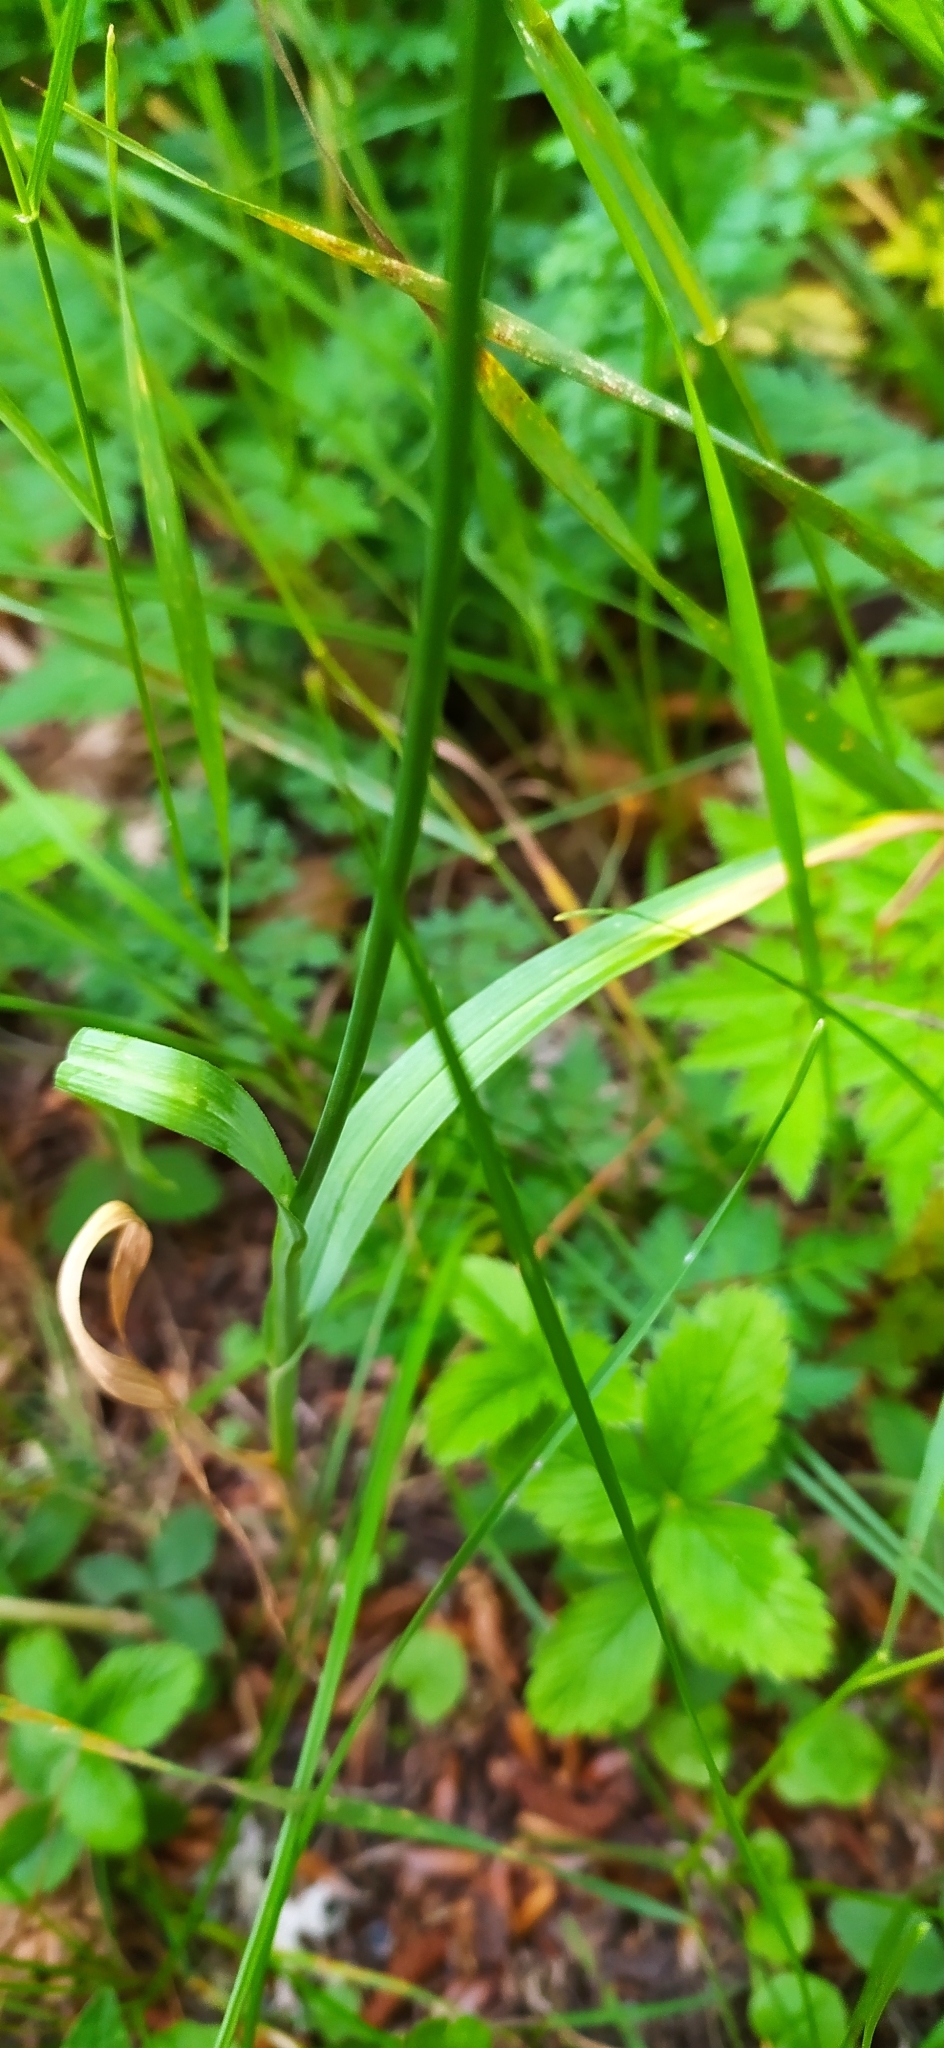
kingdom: Plantae
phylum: Tracheophyta
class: Liliopsida
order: Asparagales
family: Amaryllidaceae
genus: Allium
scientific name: Allium rotundum
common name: Sand leek
